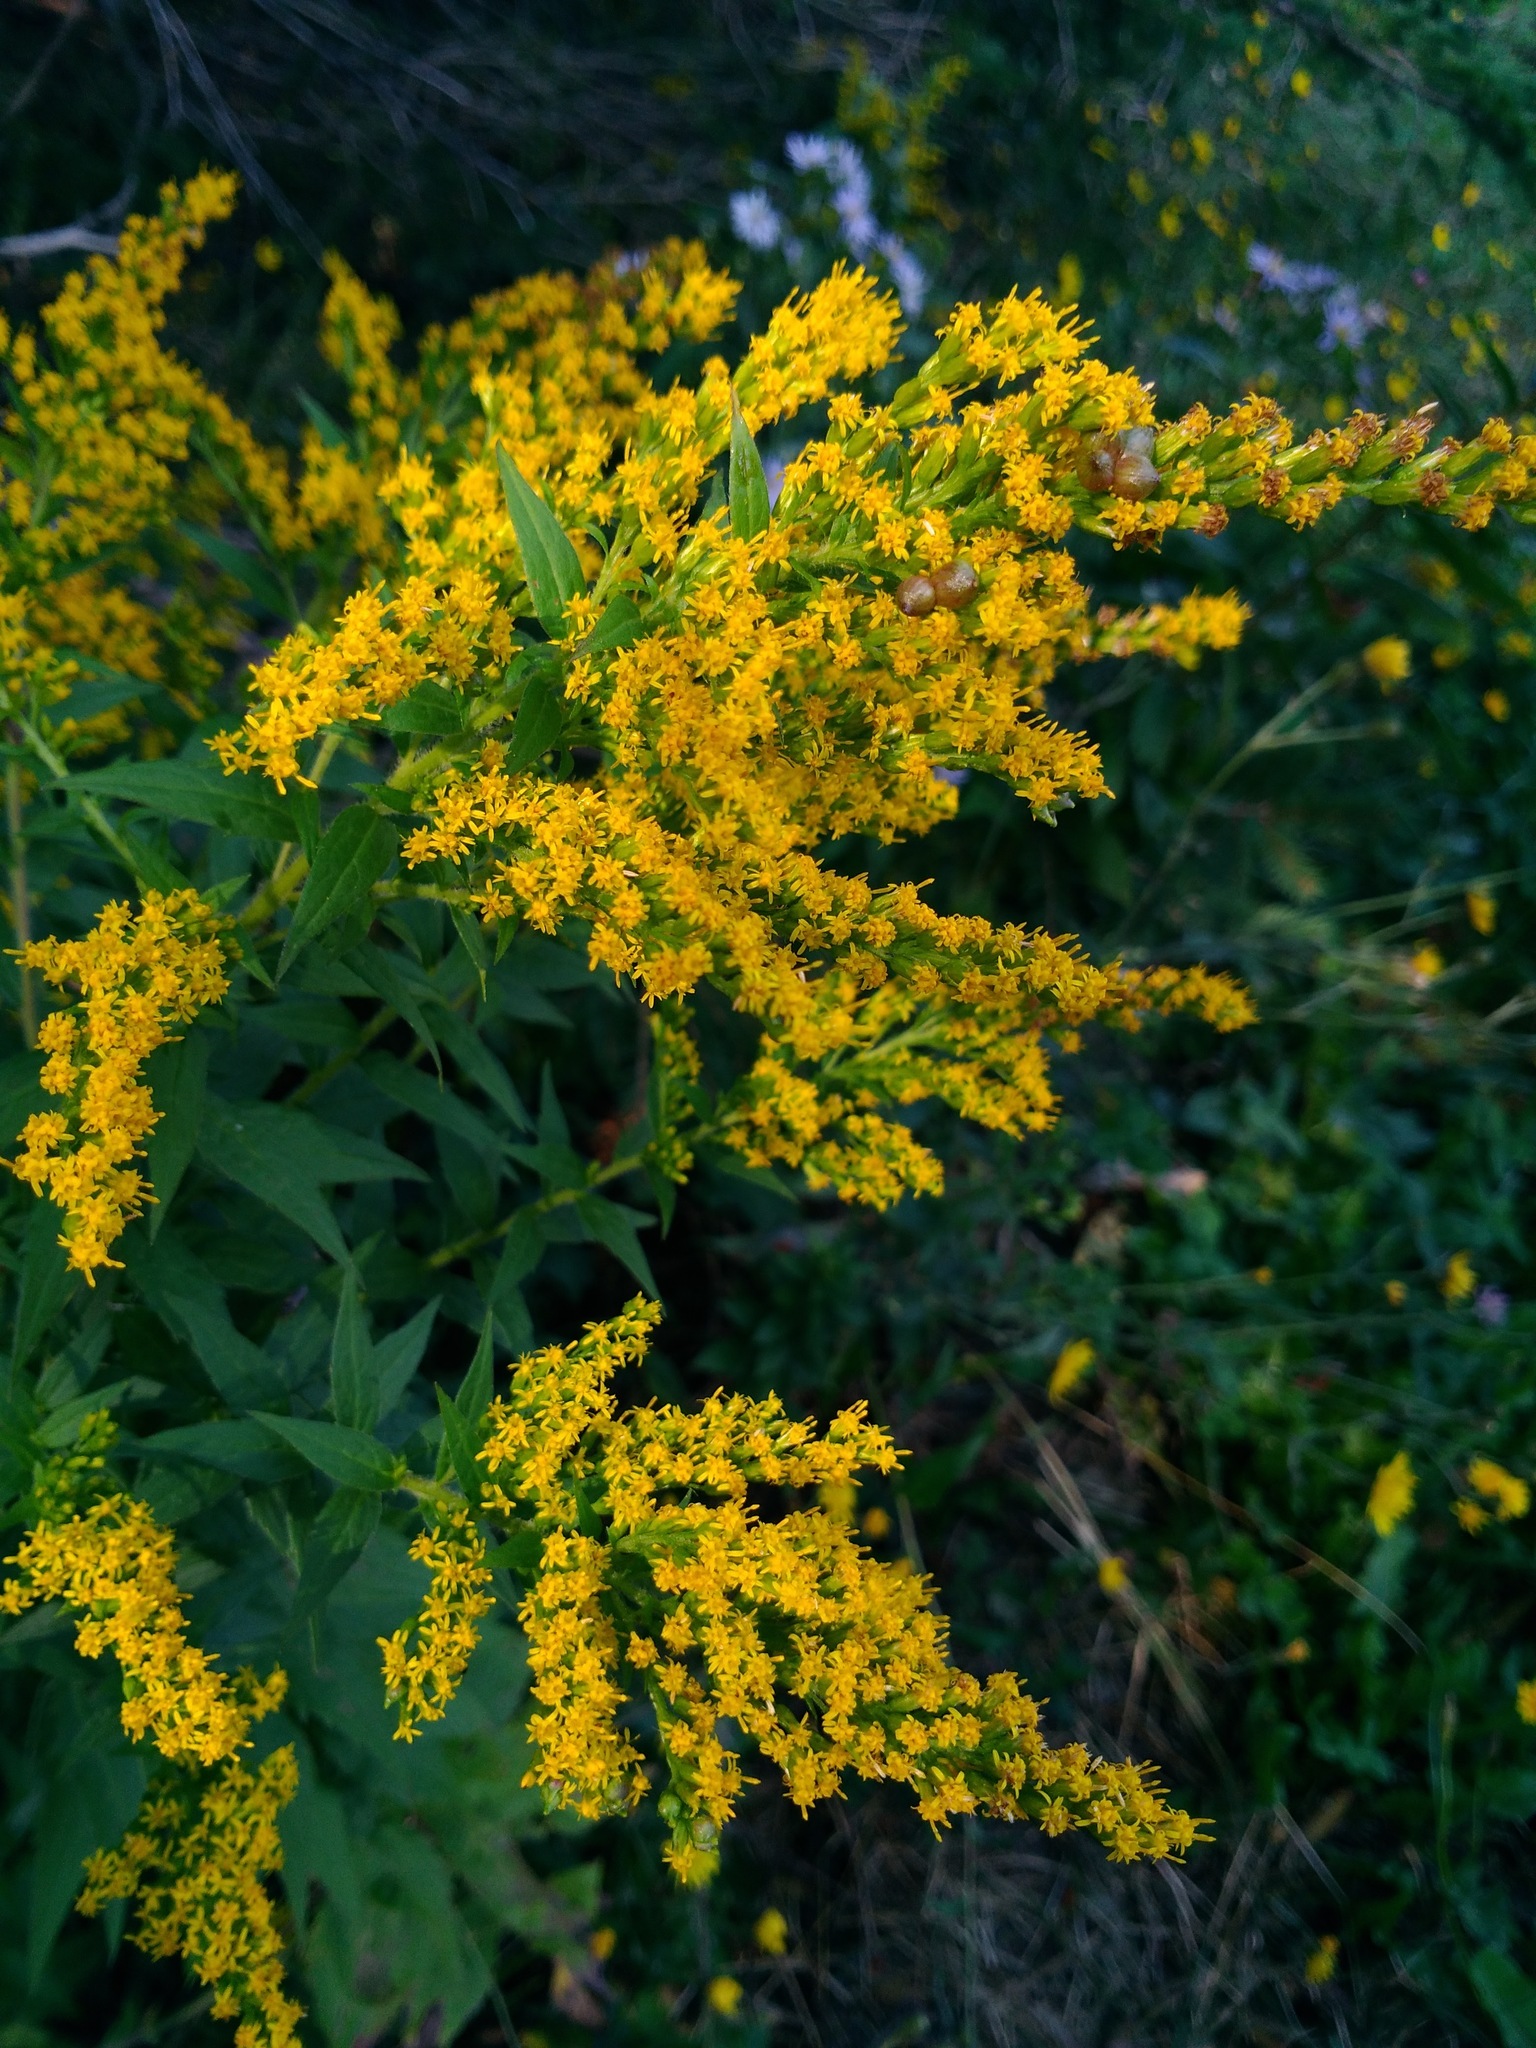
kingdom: Plantae
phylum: Tracheophyta
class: Magnoliopsida
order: Asterales
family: Asteraceae
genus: Solidago
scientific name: Solidago rugosa
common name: Rough-stemmed goldenrod
